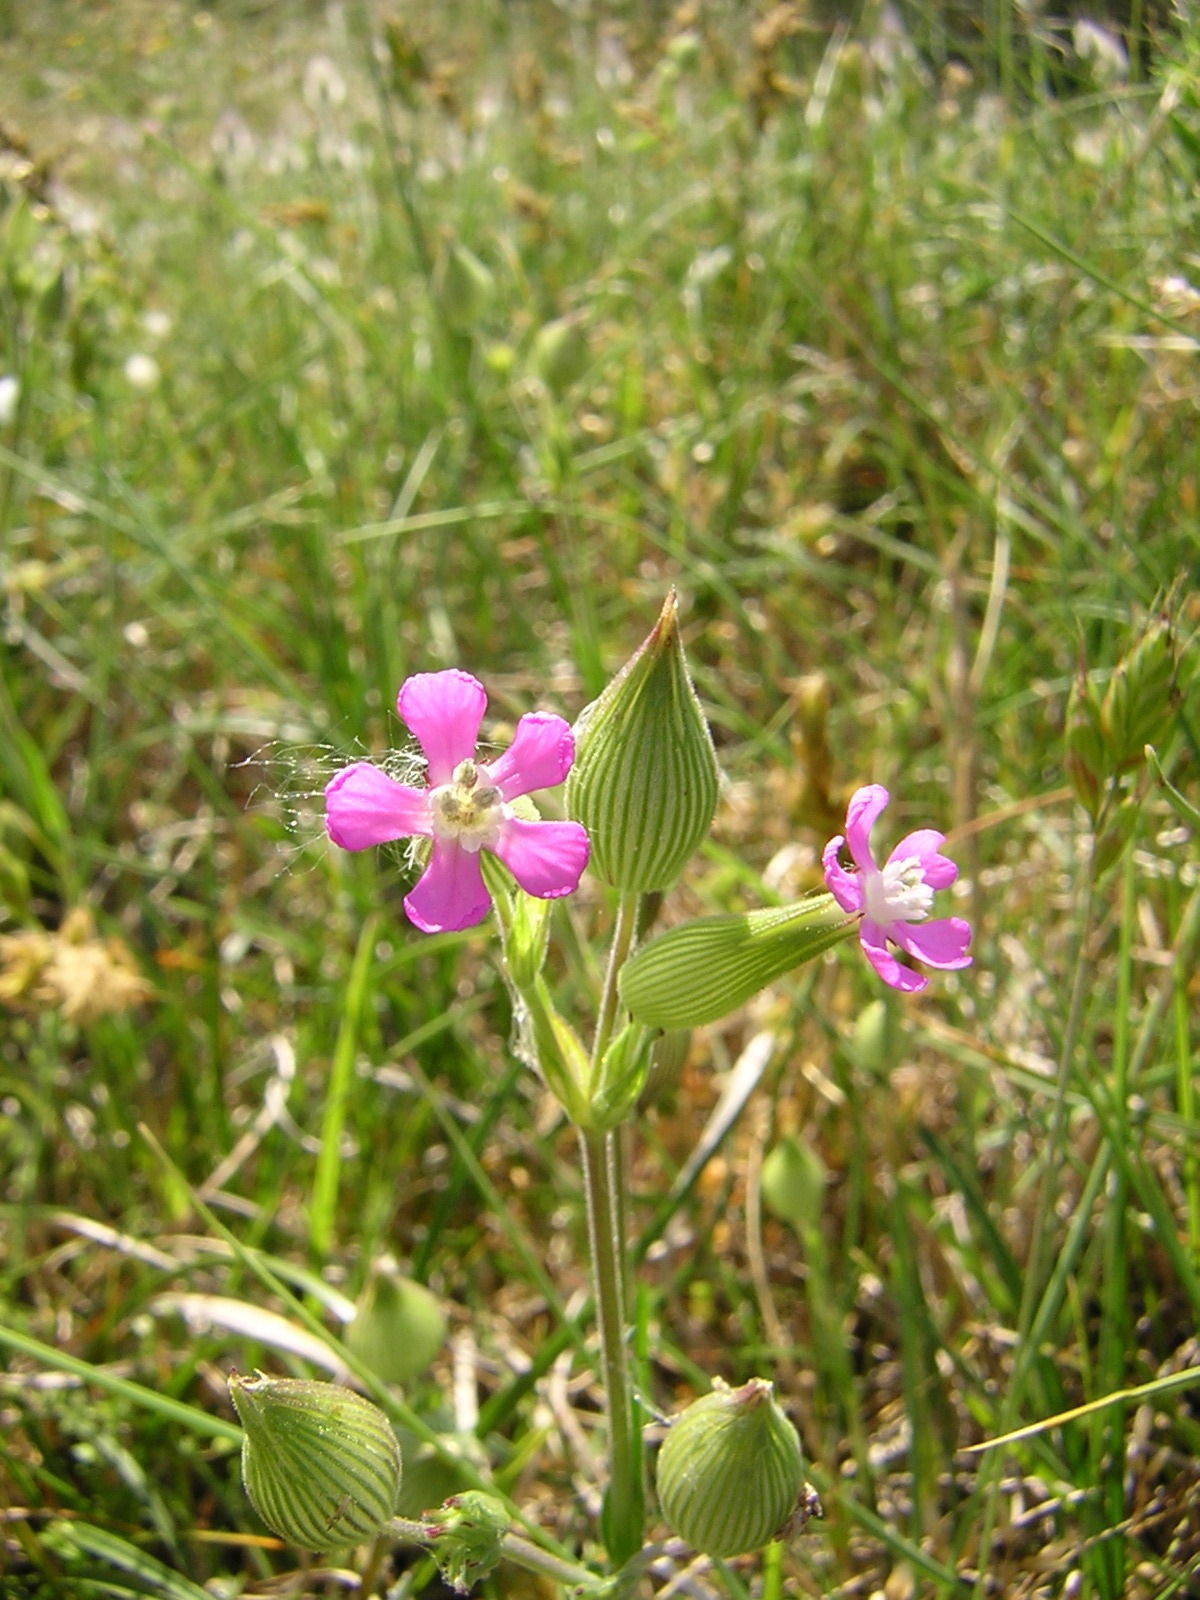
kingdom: Plantae
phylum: Tracheophyta
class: Magnoliopsida
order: Caryophyllales
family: Caryophyllaceae
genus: Silene
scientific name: Silene conica
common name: Sand catchfly
